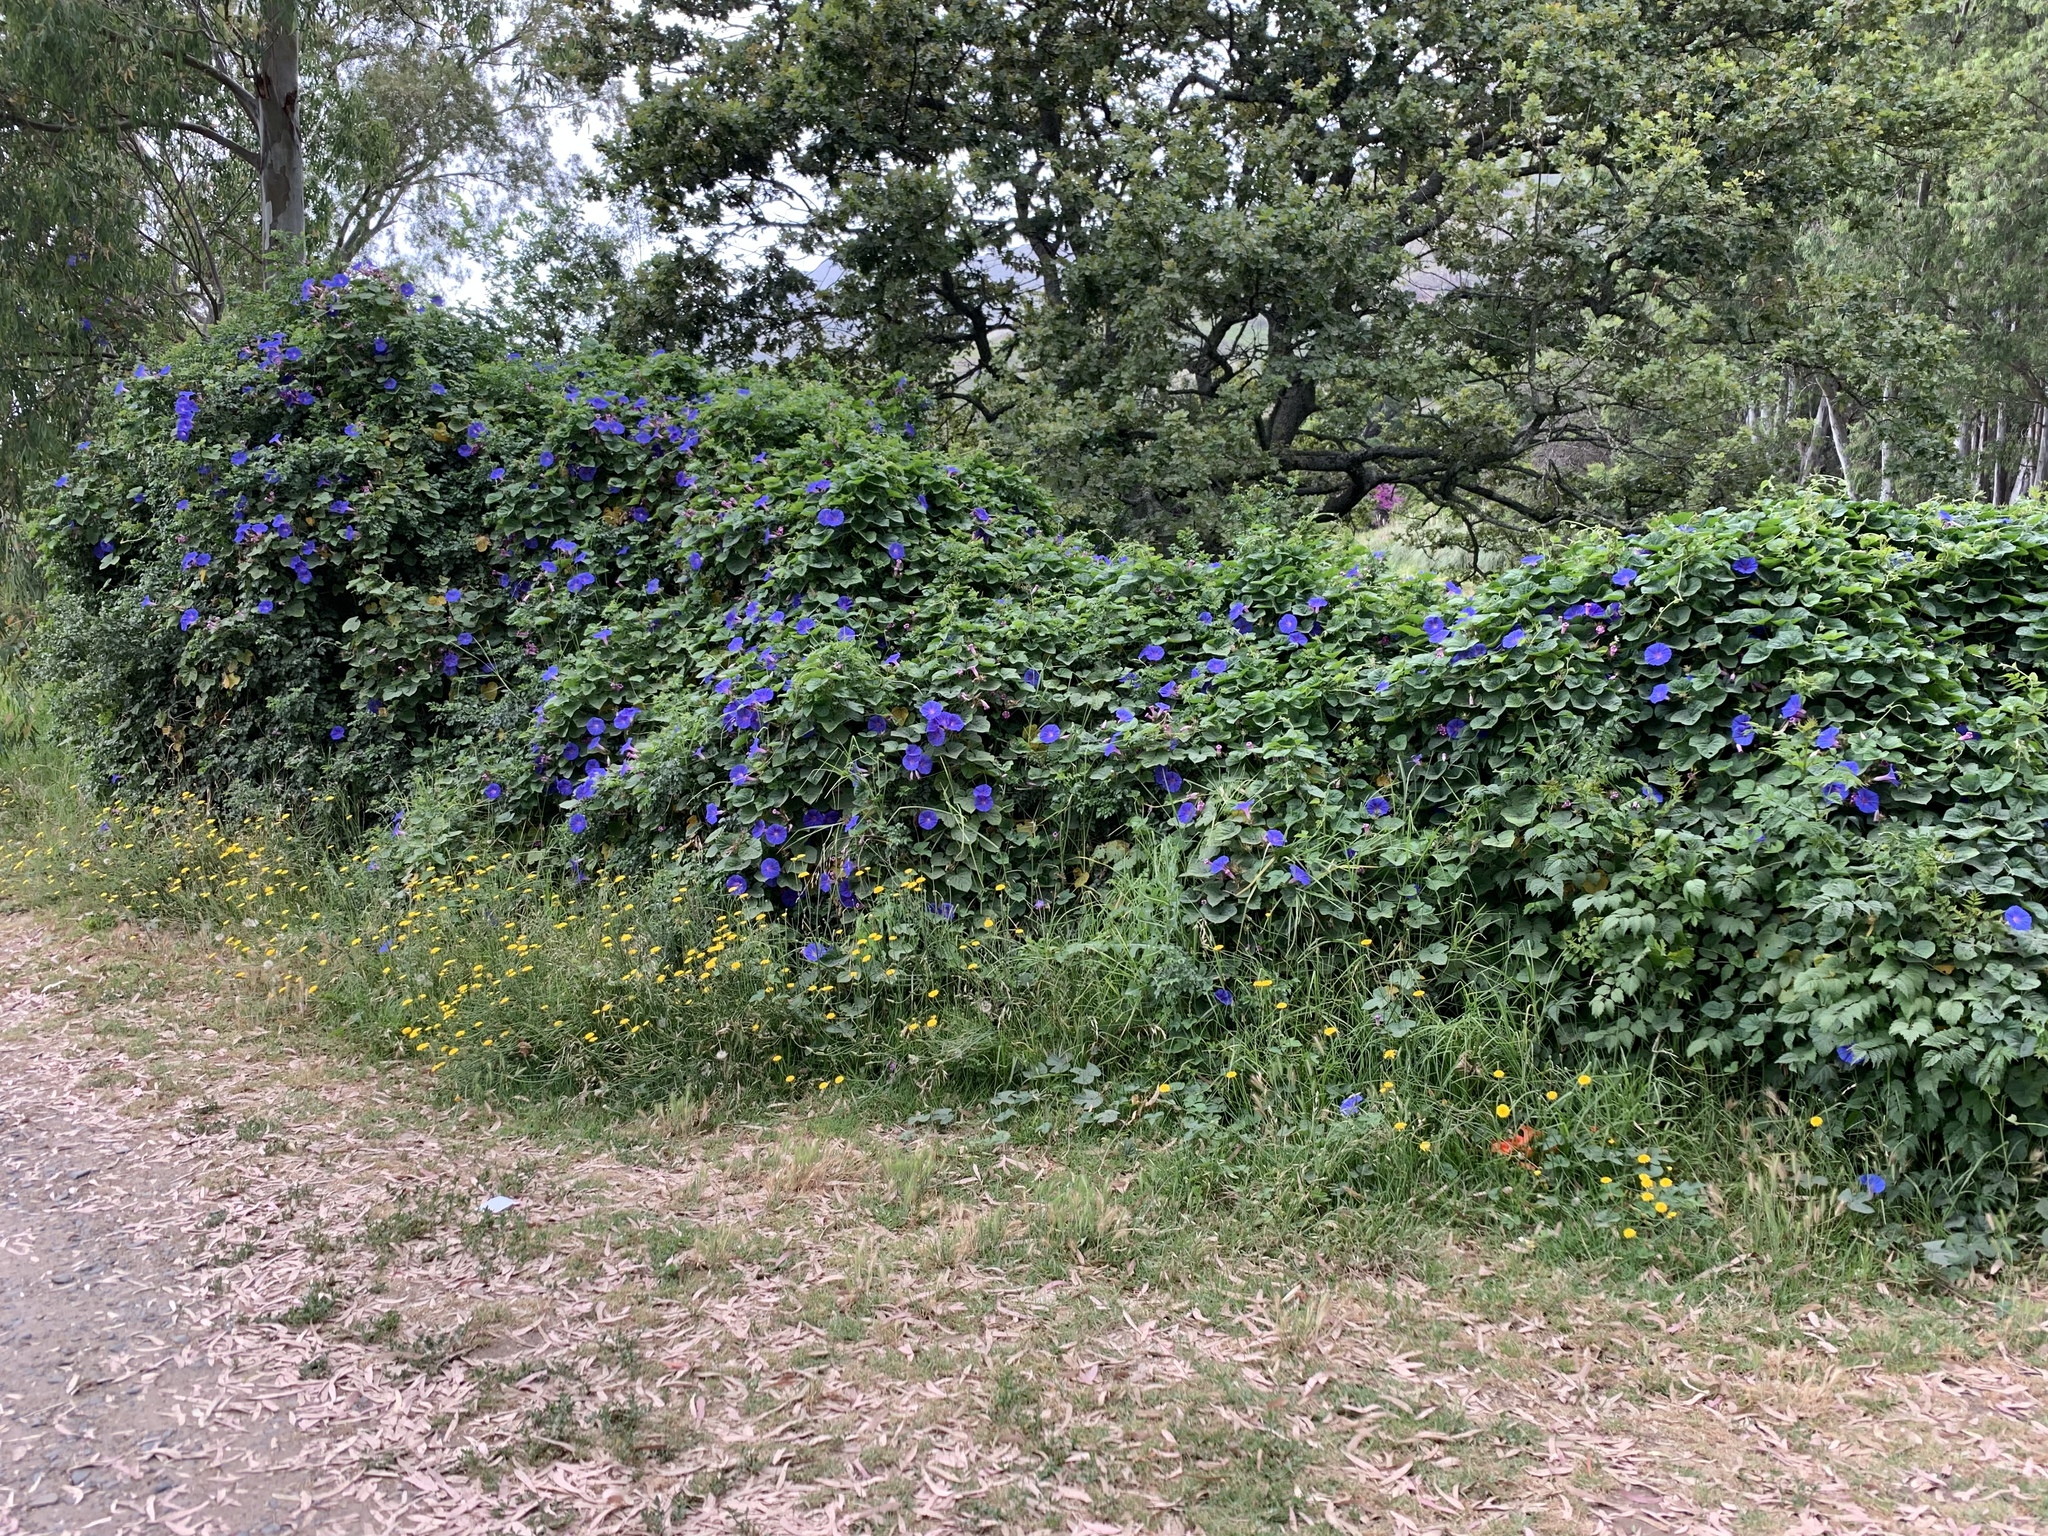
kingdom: Plantae
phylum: Tracheophyta
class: Magnoliopsida
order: Solanales
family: Convolvulaceae
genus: Ipomoea
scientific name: Ipomoea indica
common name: Blue dawnflower
